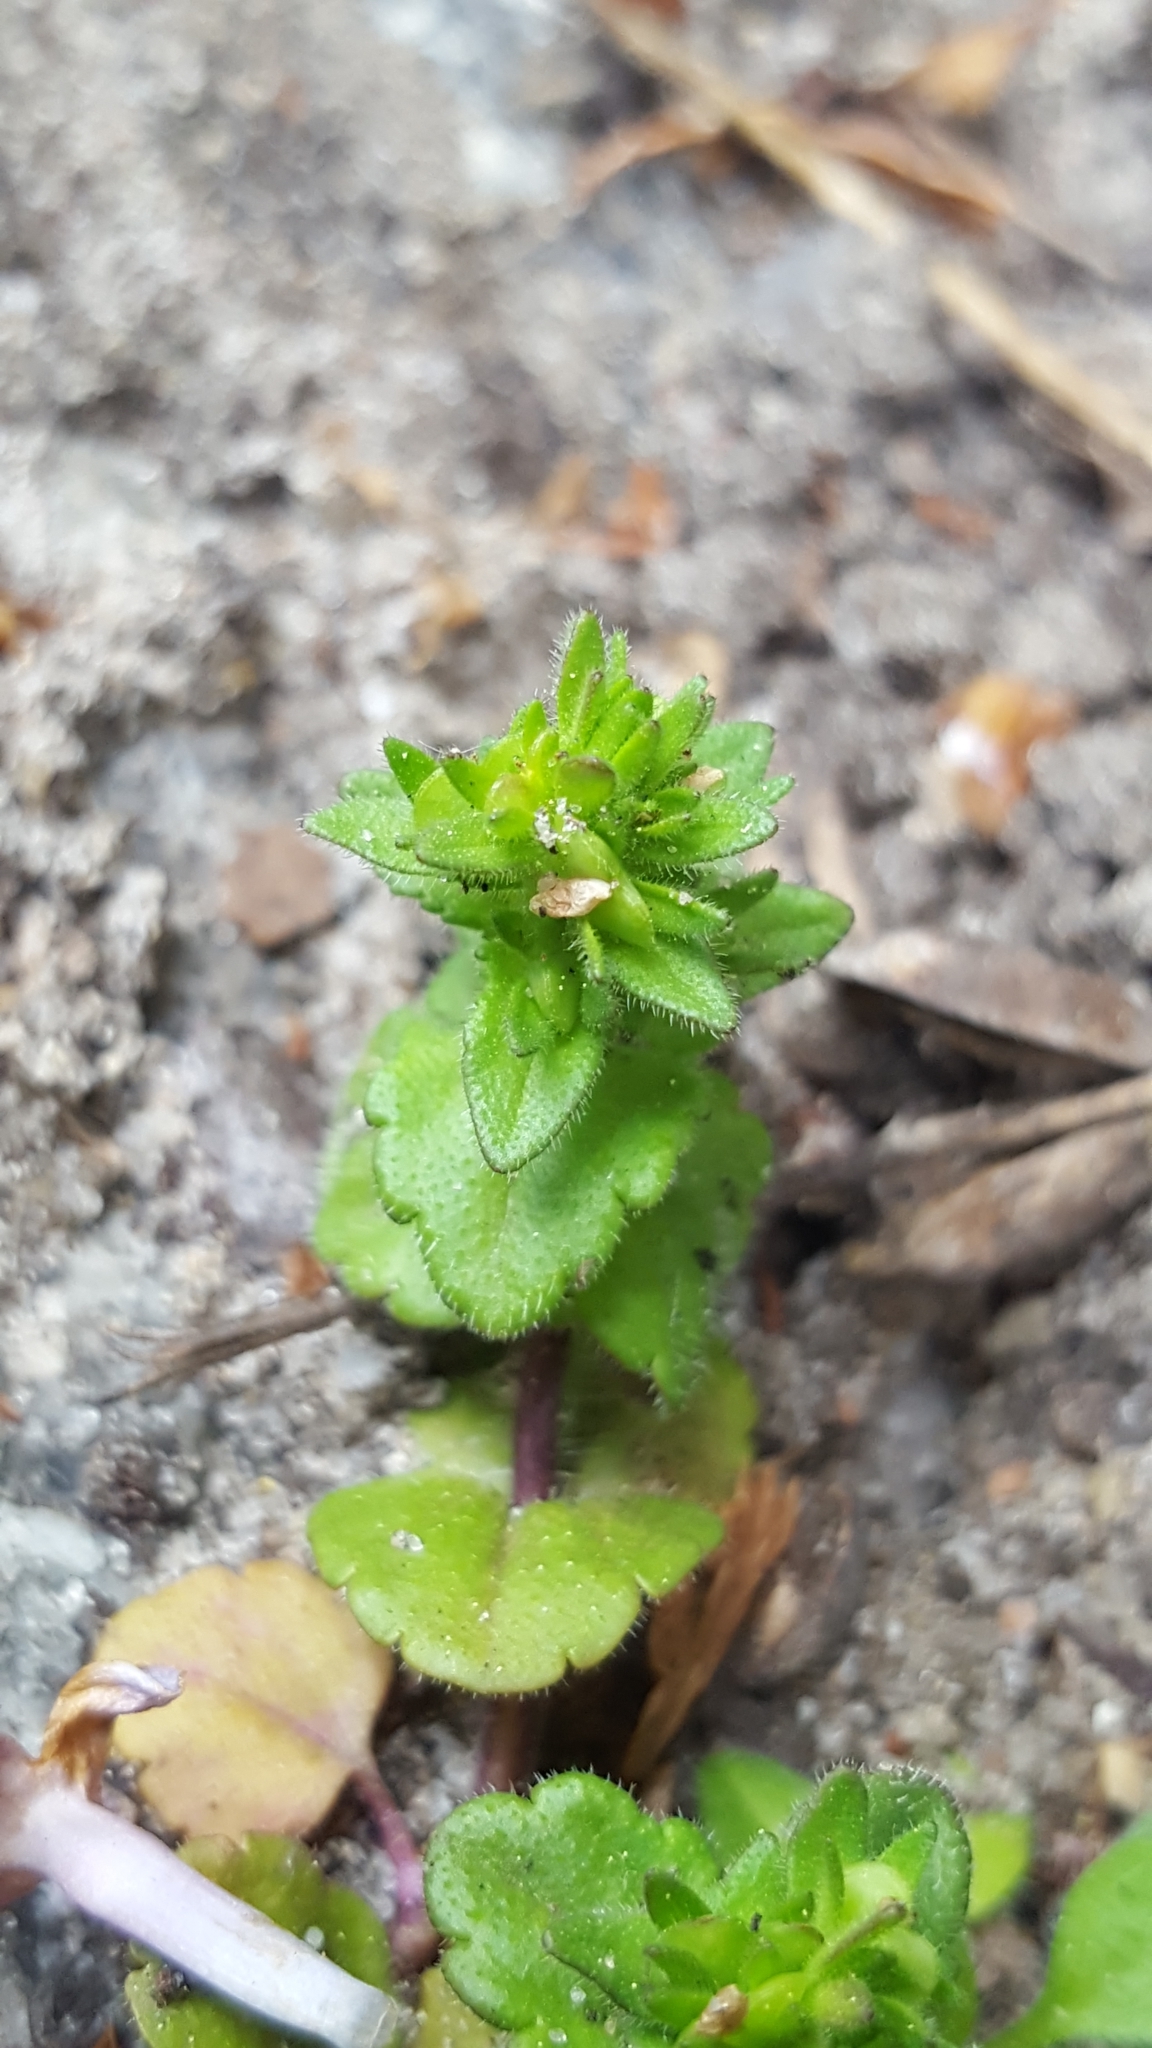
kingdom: Plantae
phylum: Tracheophyta
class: Magnoliopsida
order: Lamiales
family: Plantaginaceae
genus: Veronica
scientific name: Veronica arvensis
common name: Corn speedwell
